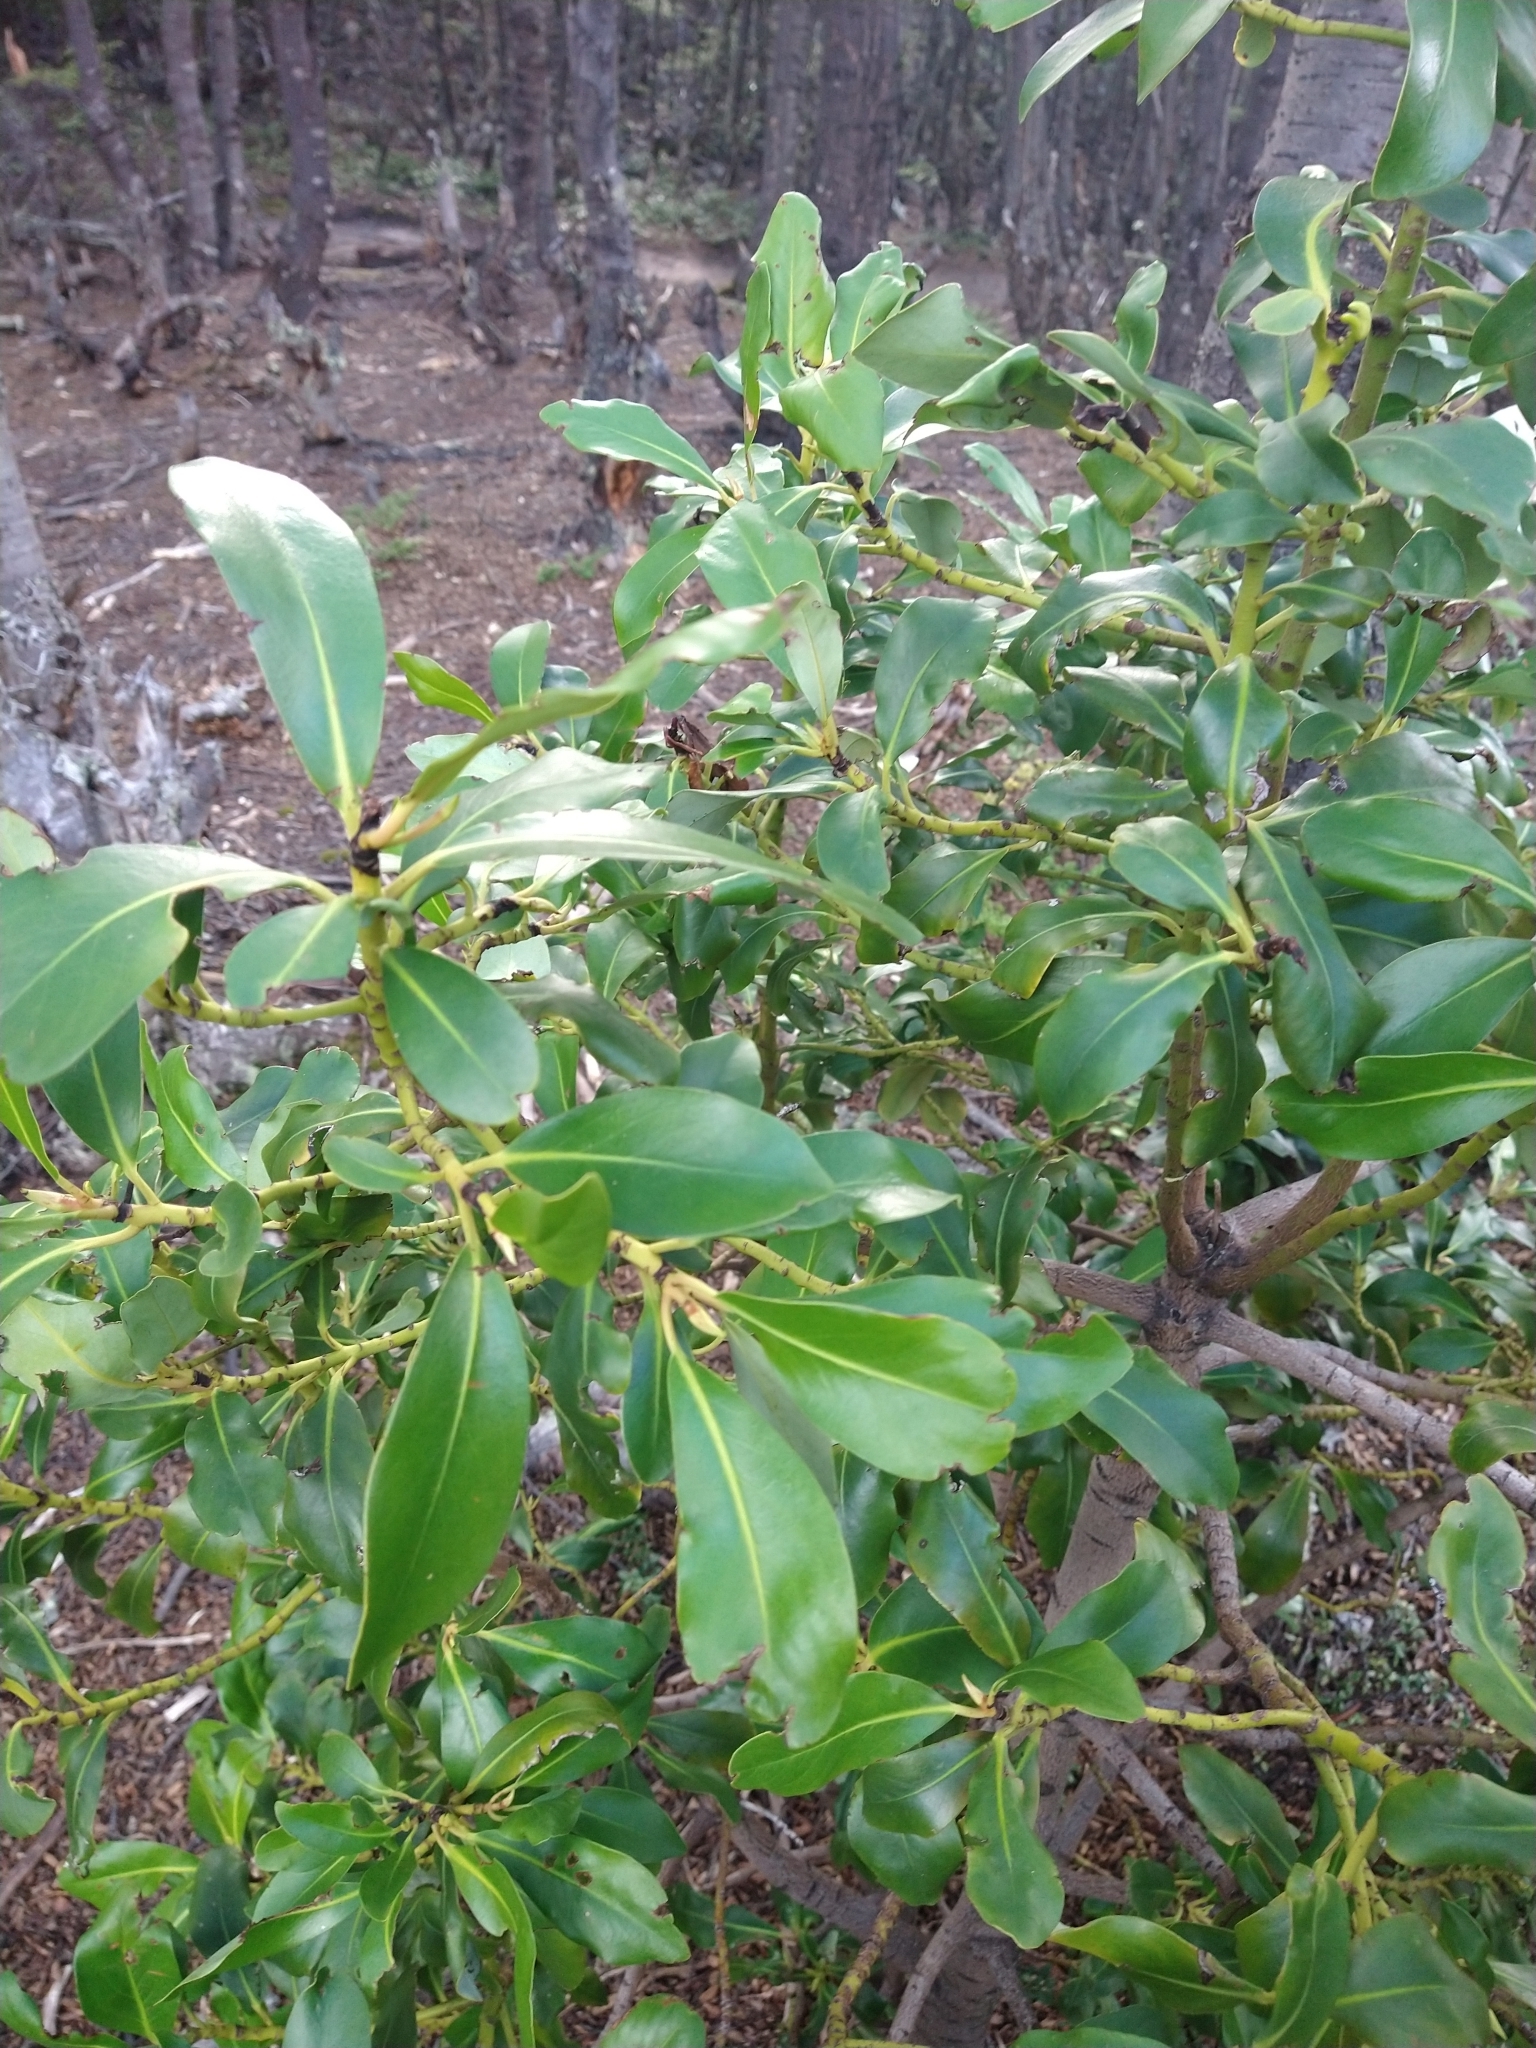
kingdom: Plantae
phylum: Tracheophyta
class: Magnoliopsida
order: Canellales
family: Winteraceae
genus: Drimys
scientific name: Drimys winteri
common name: Winter's-bark
